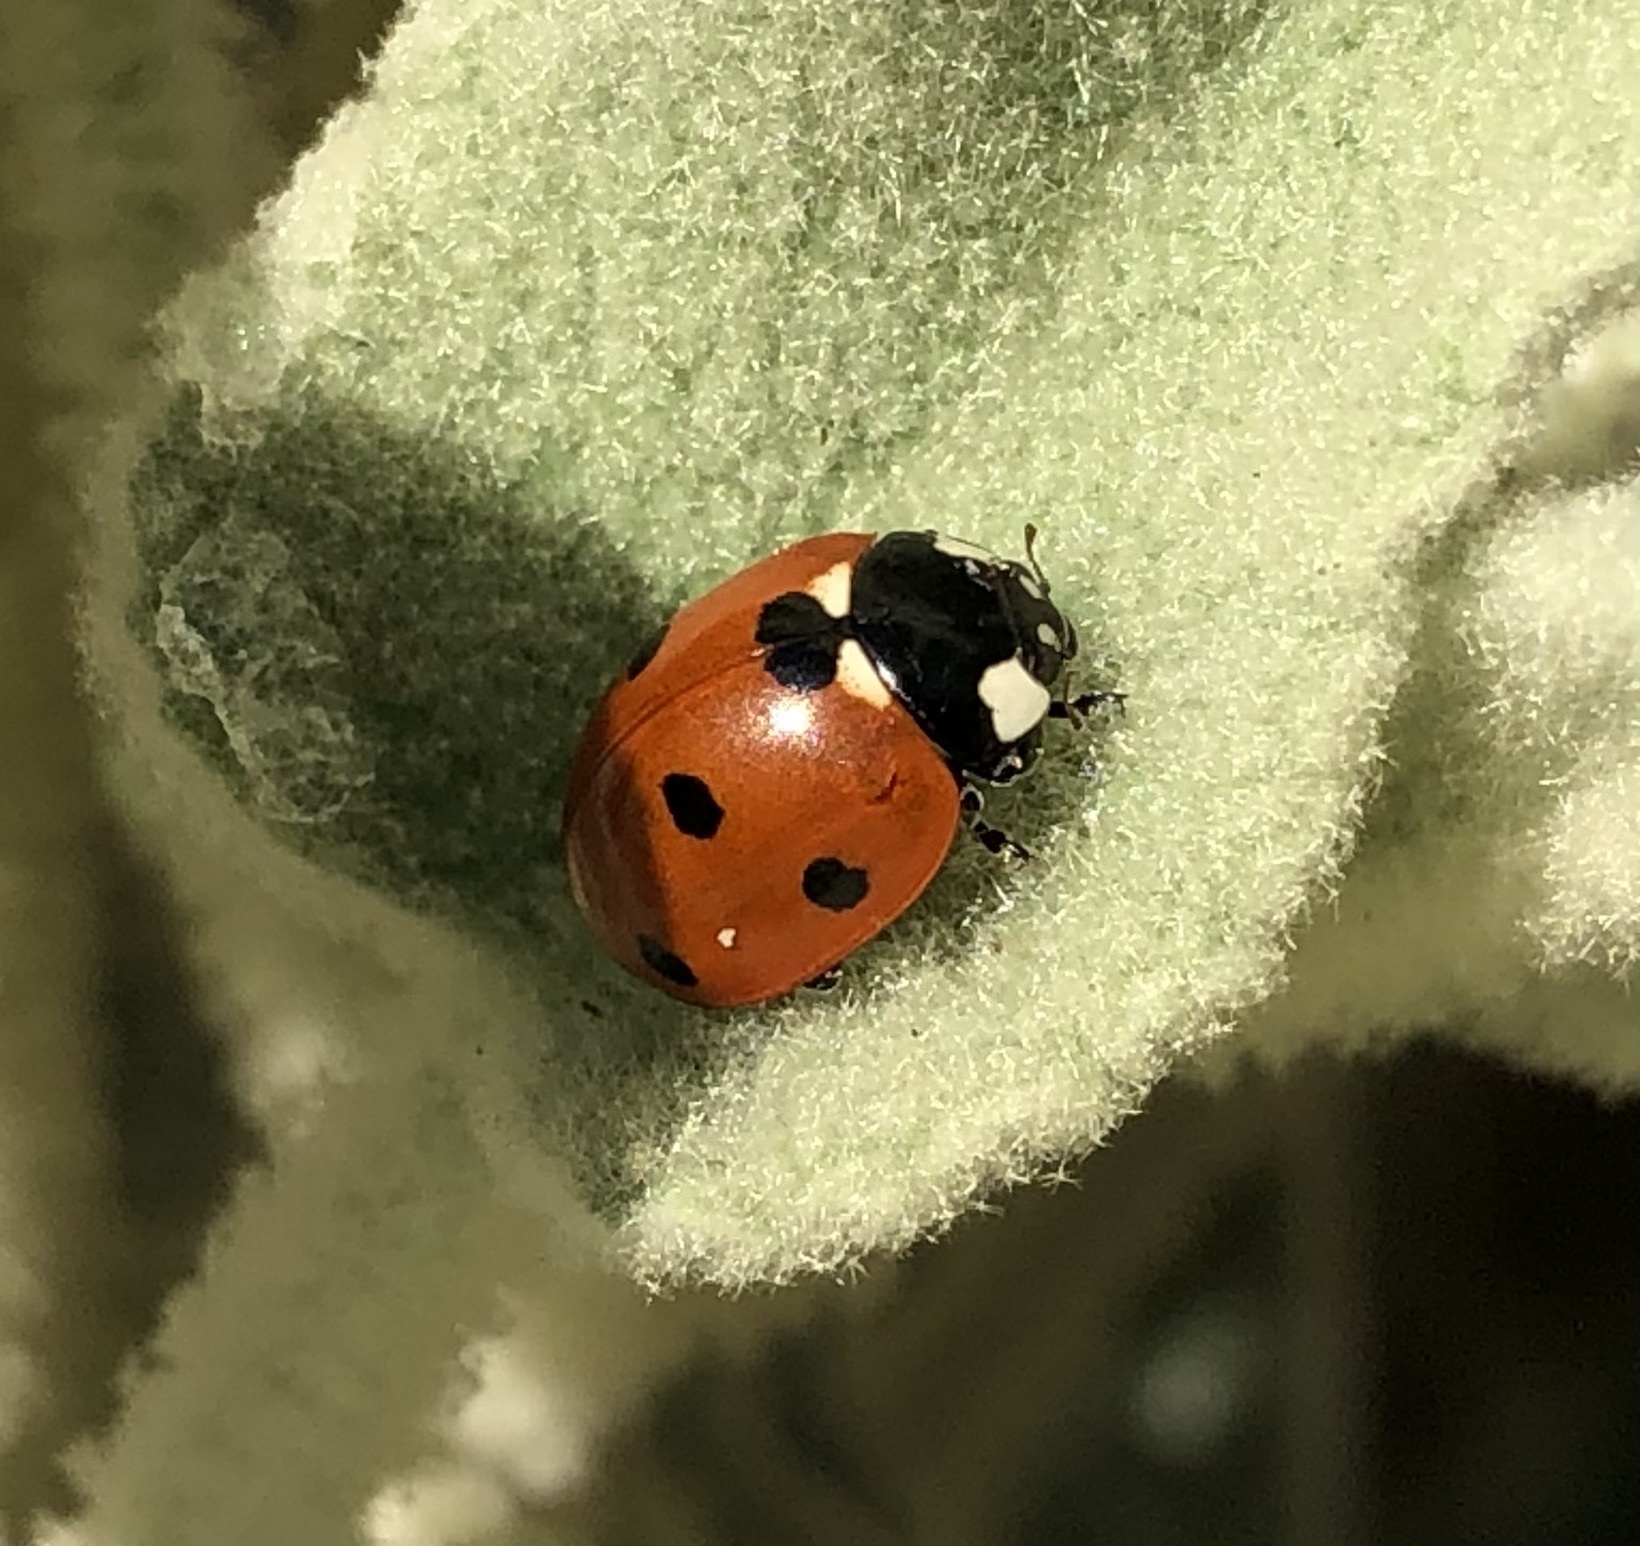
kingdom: Animalia
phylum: Arthropoda
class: Insecta
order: Coleoptera
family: Coccinellidae
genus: Coccinella
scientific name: Coccinella septempunctata
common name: Sevenspotted lady beetle
